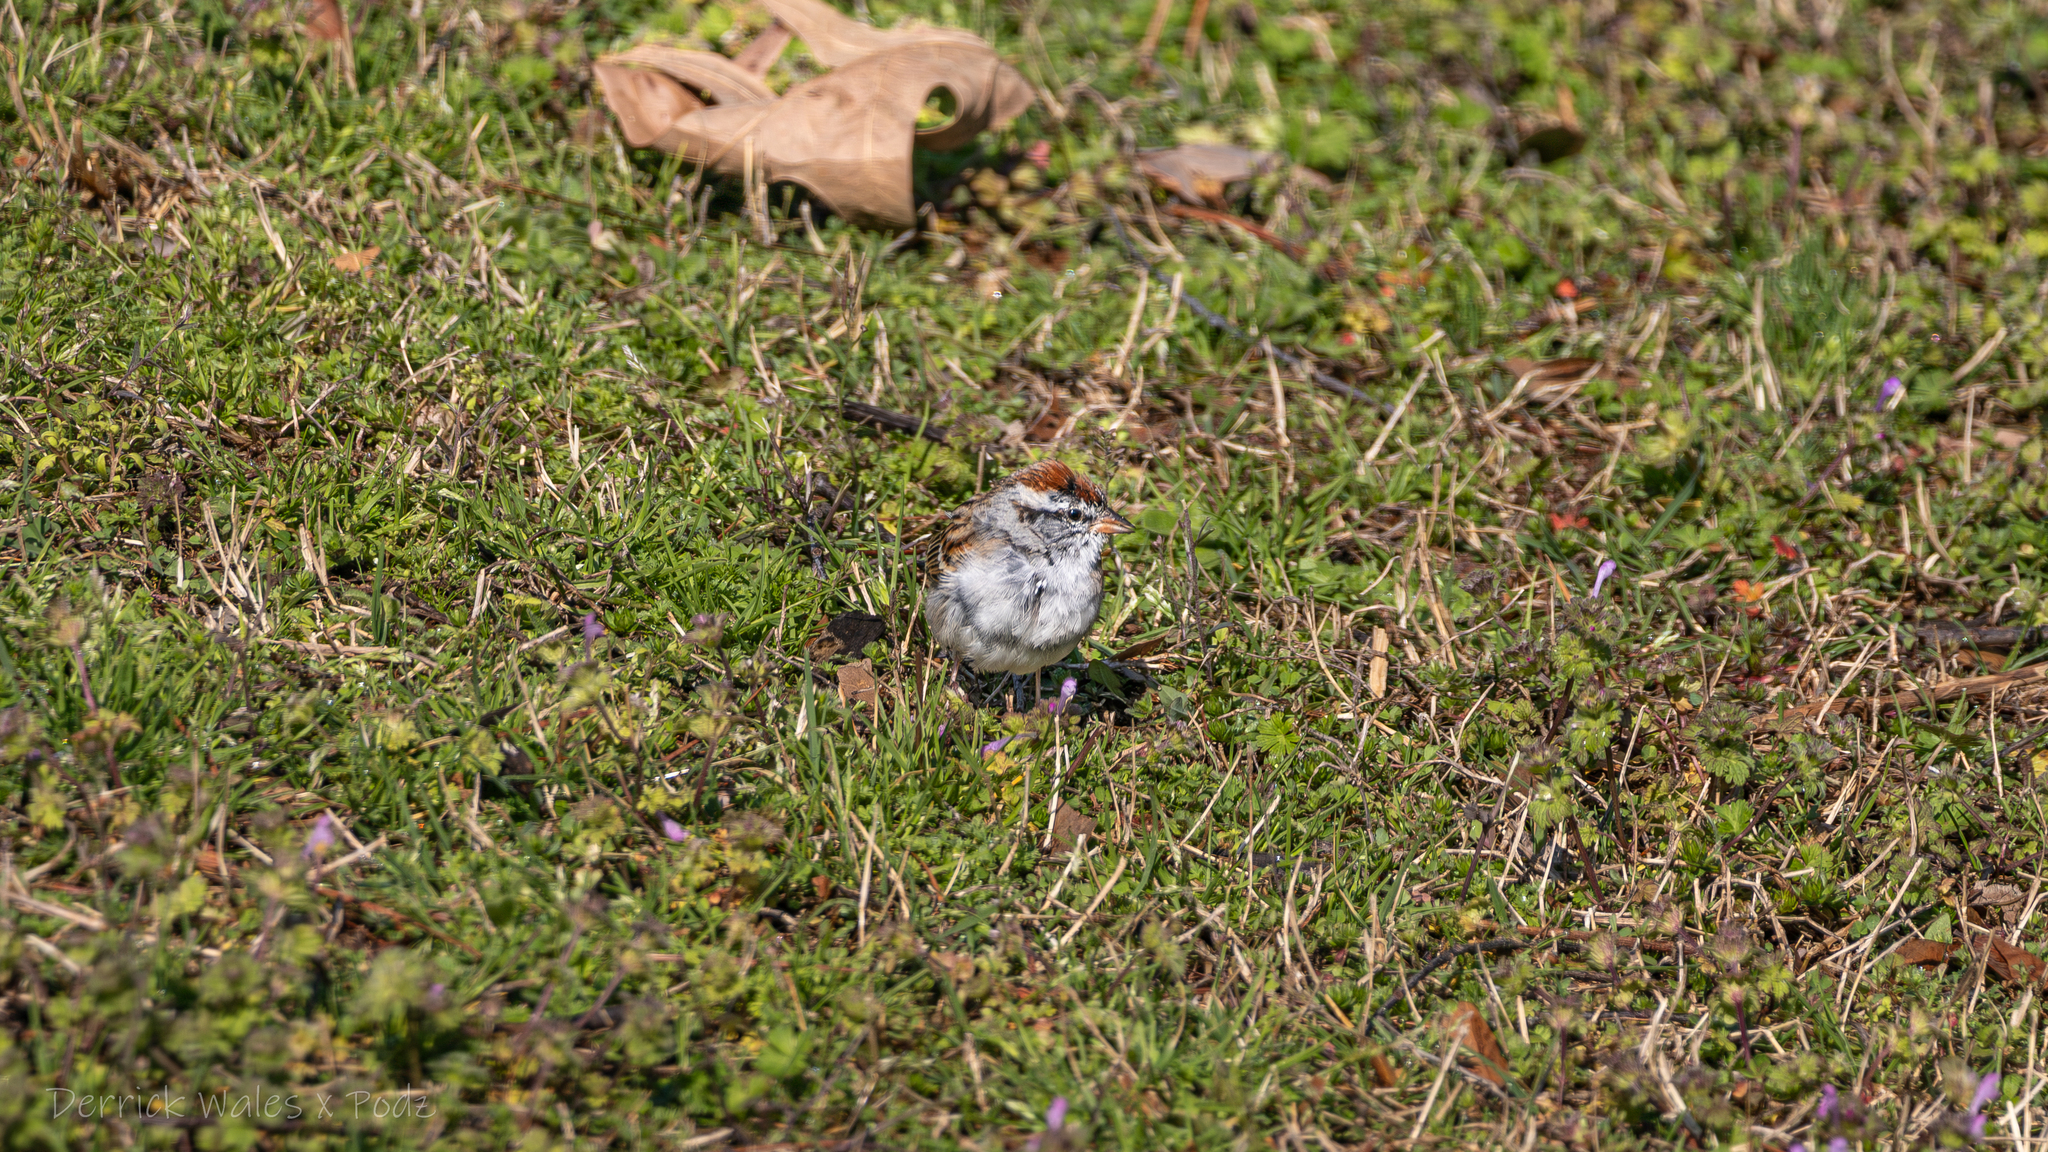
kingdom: Animalia
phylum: Chordata
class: Aves
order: Passeriformes
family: Passerellidae
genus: Spizella
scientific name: Spizella passerina
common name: Chipping sparrow
